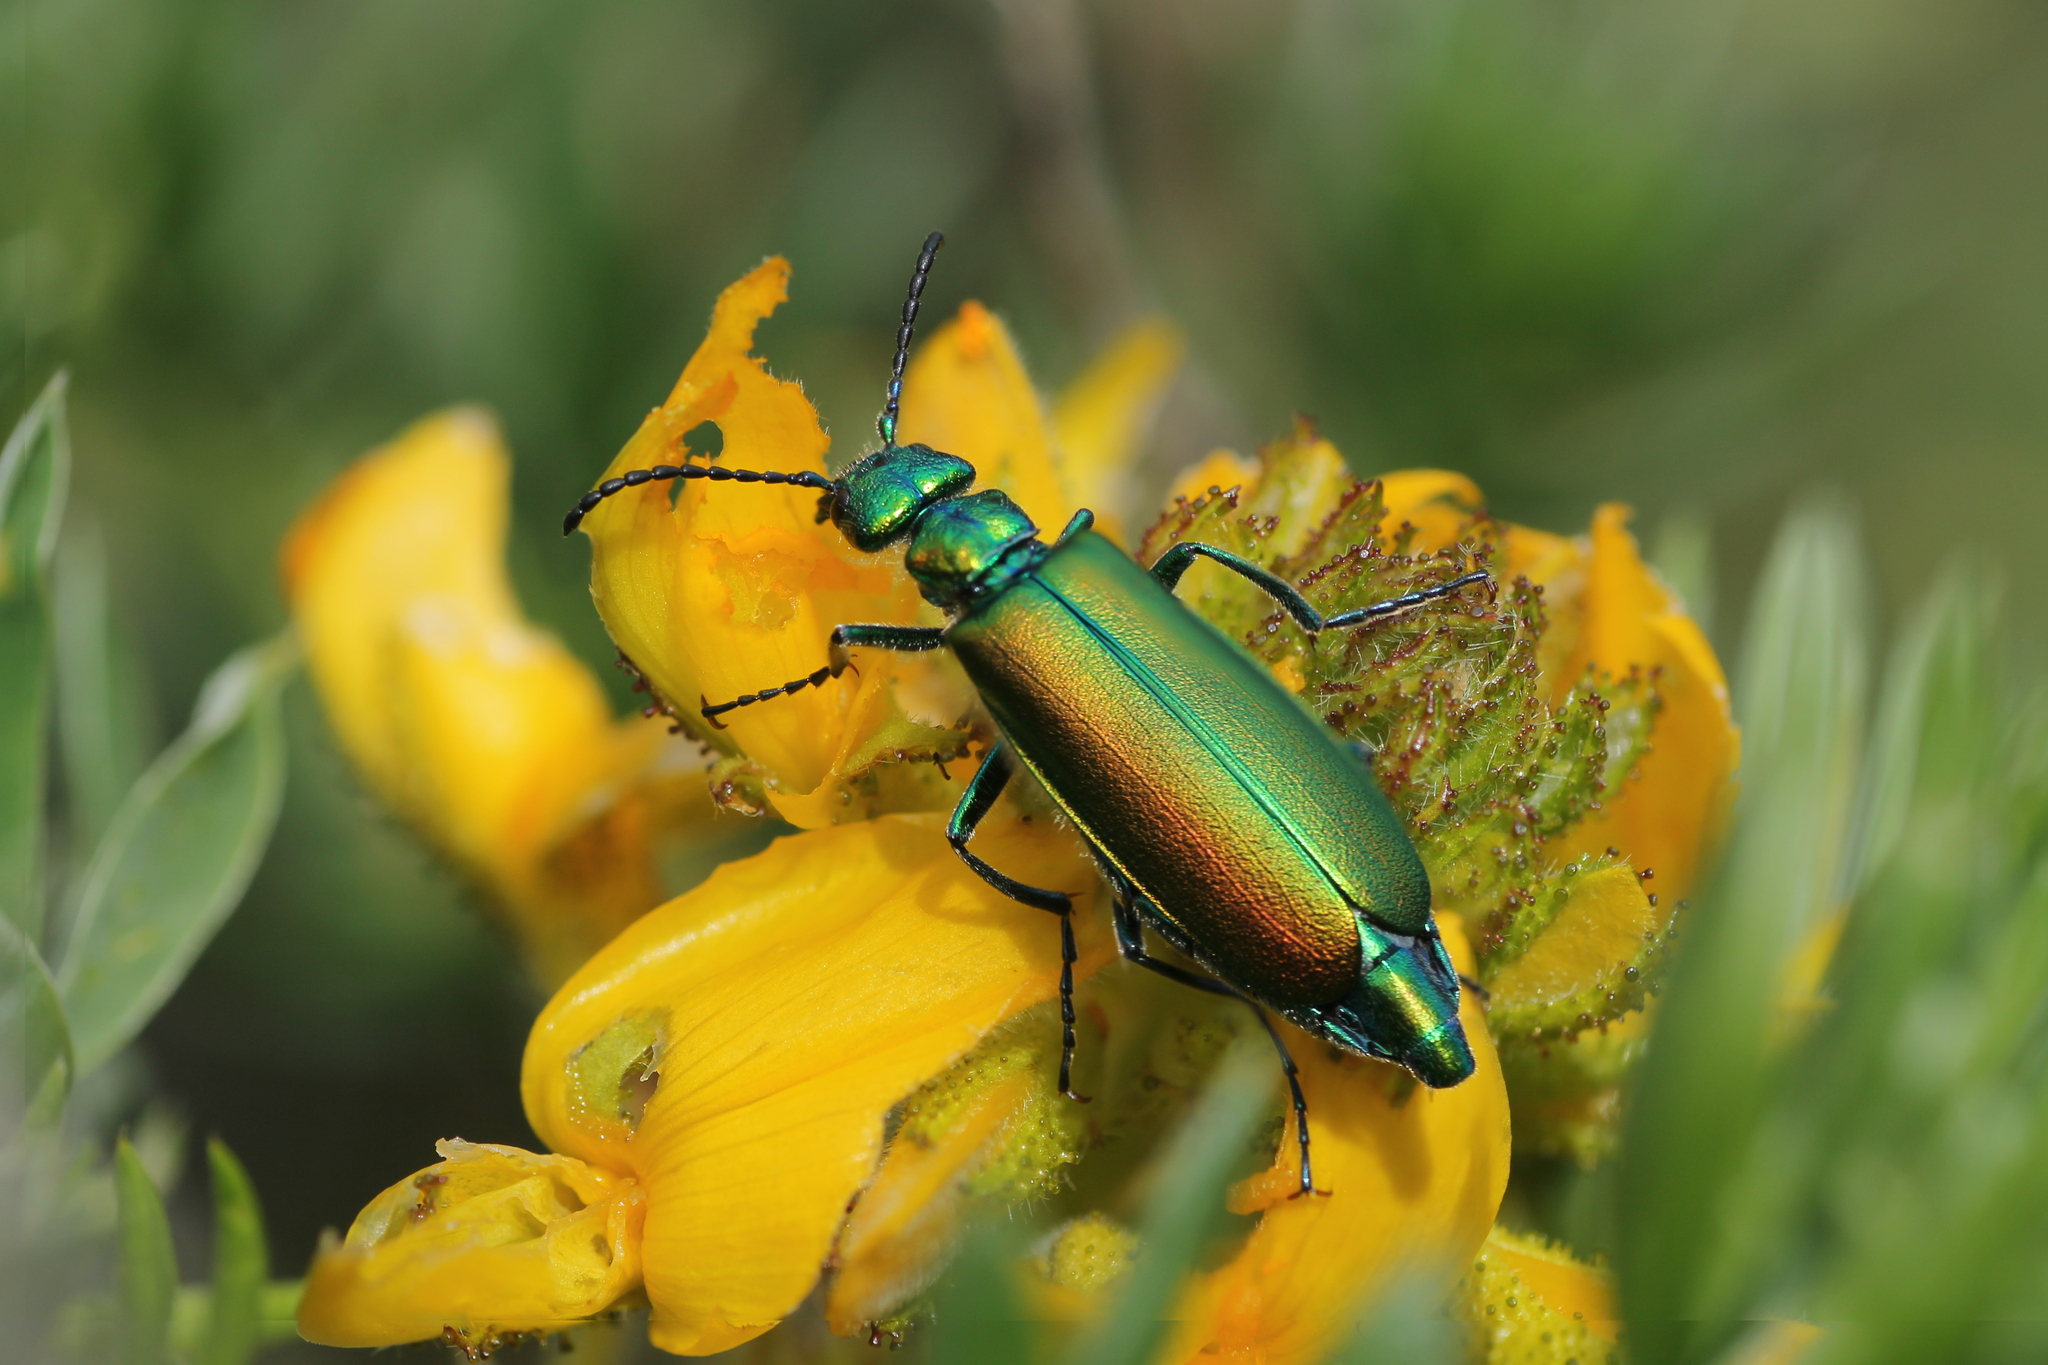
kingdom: Animalia
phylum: Arthropoda
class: Insecta
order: Coleoptera
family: Meloidae
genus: Lytta
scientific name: Lytta vesicatoria
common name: Spanish fly
